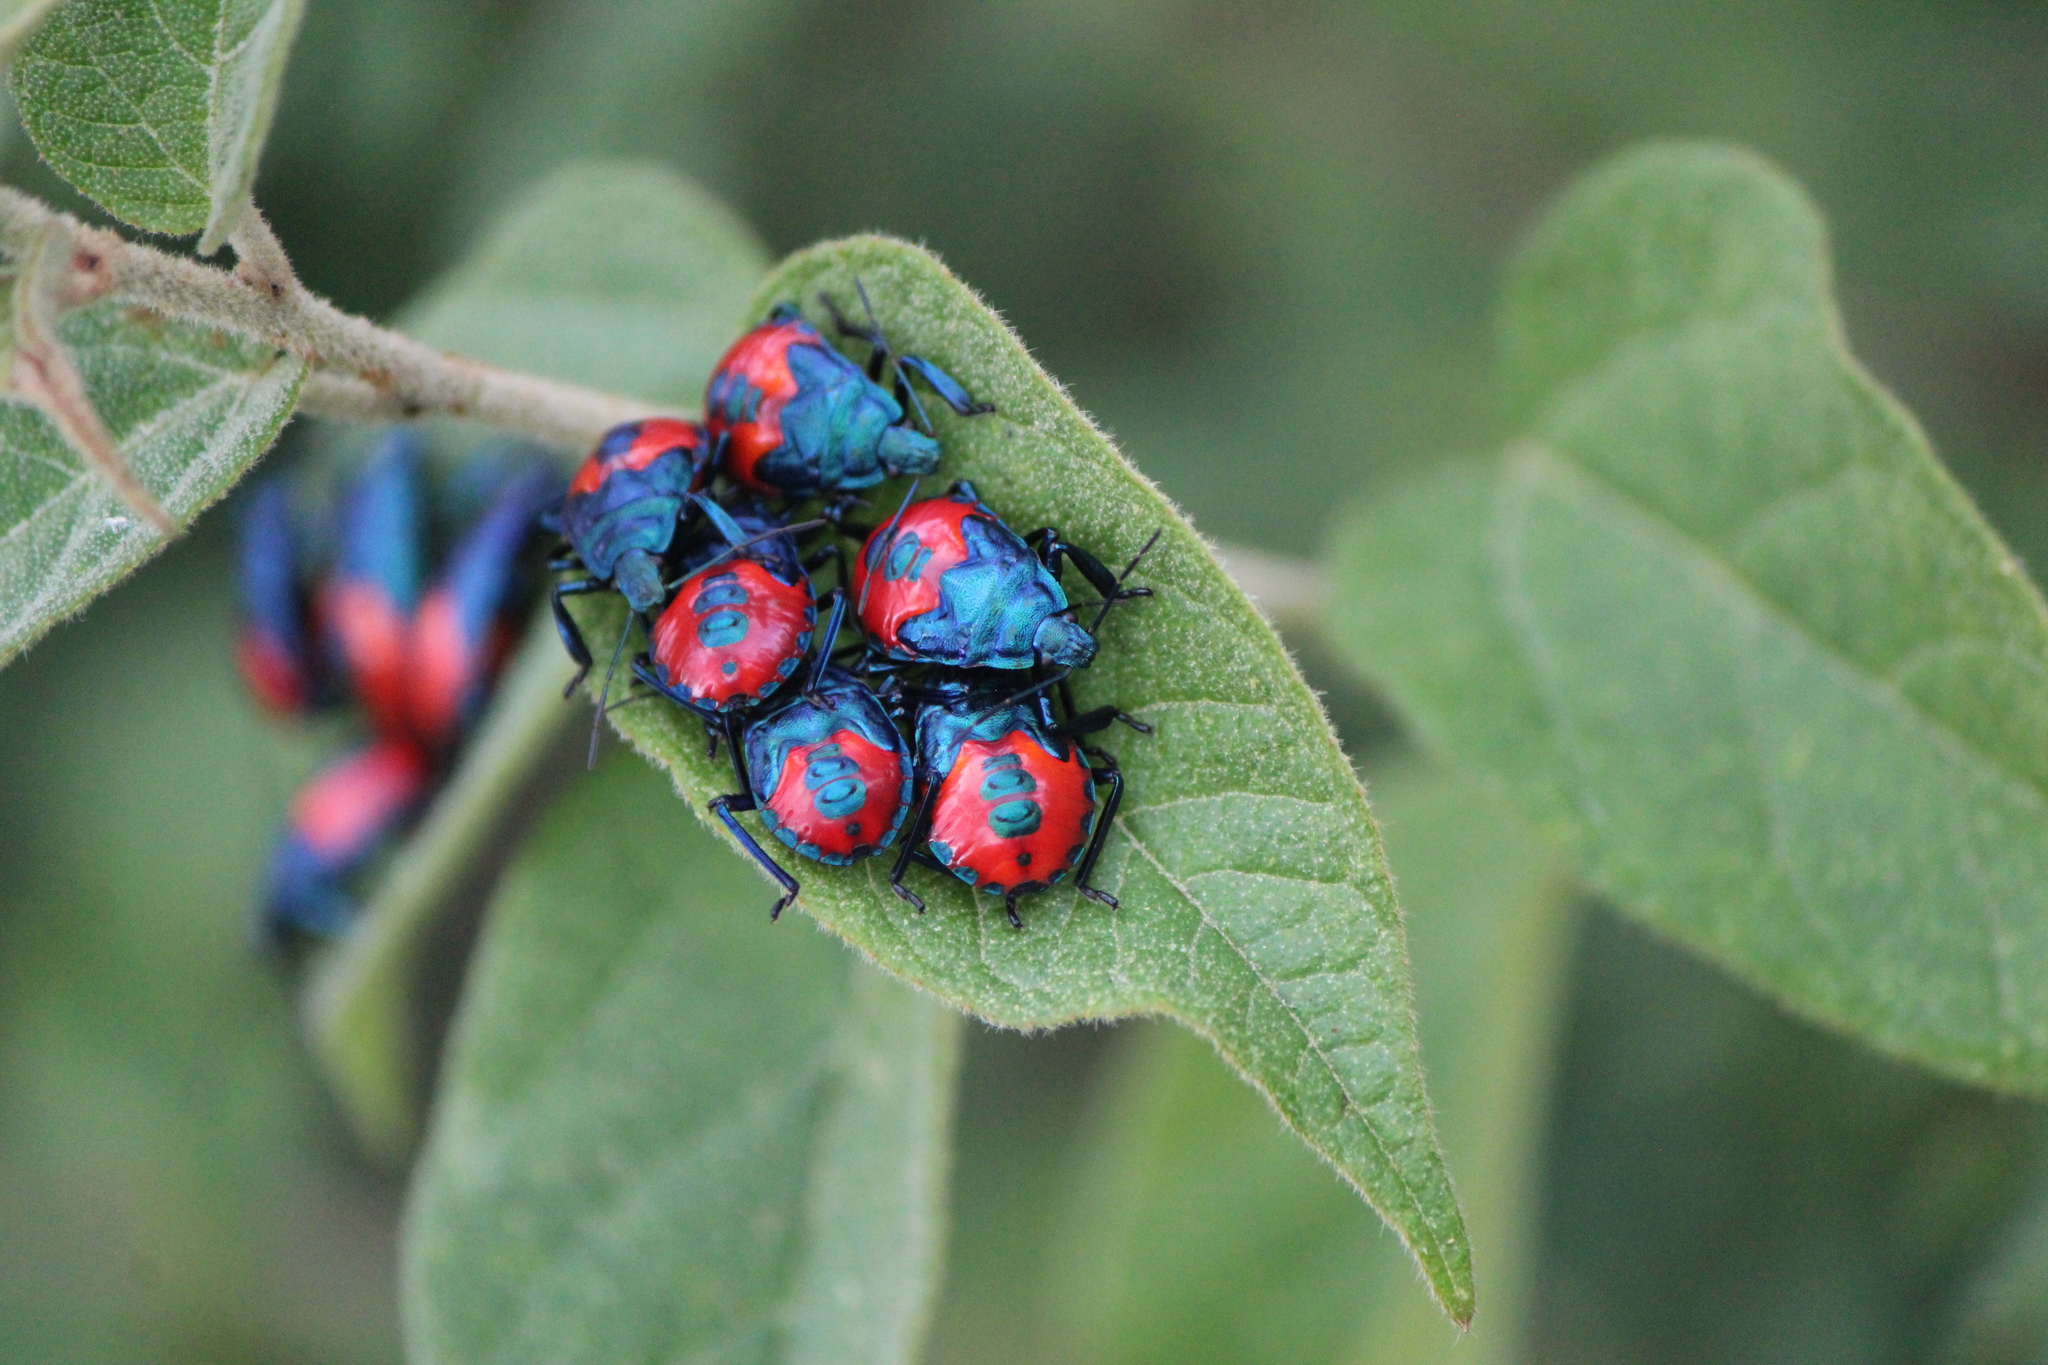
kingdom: Animalia
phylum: Arthropoda
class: Insecta
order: Hemiptera
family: Pentatomidae
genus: Euthyrhynchus
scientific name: Euthyrhynchus floridanus
